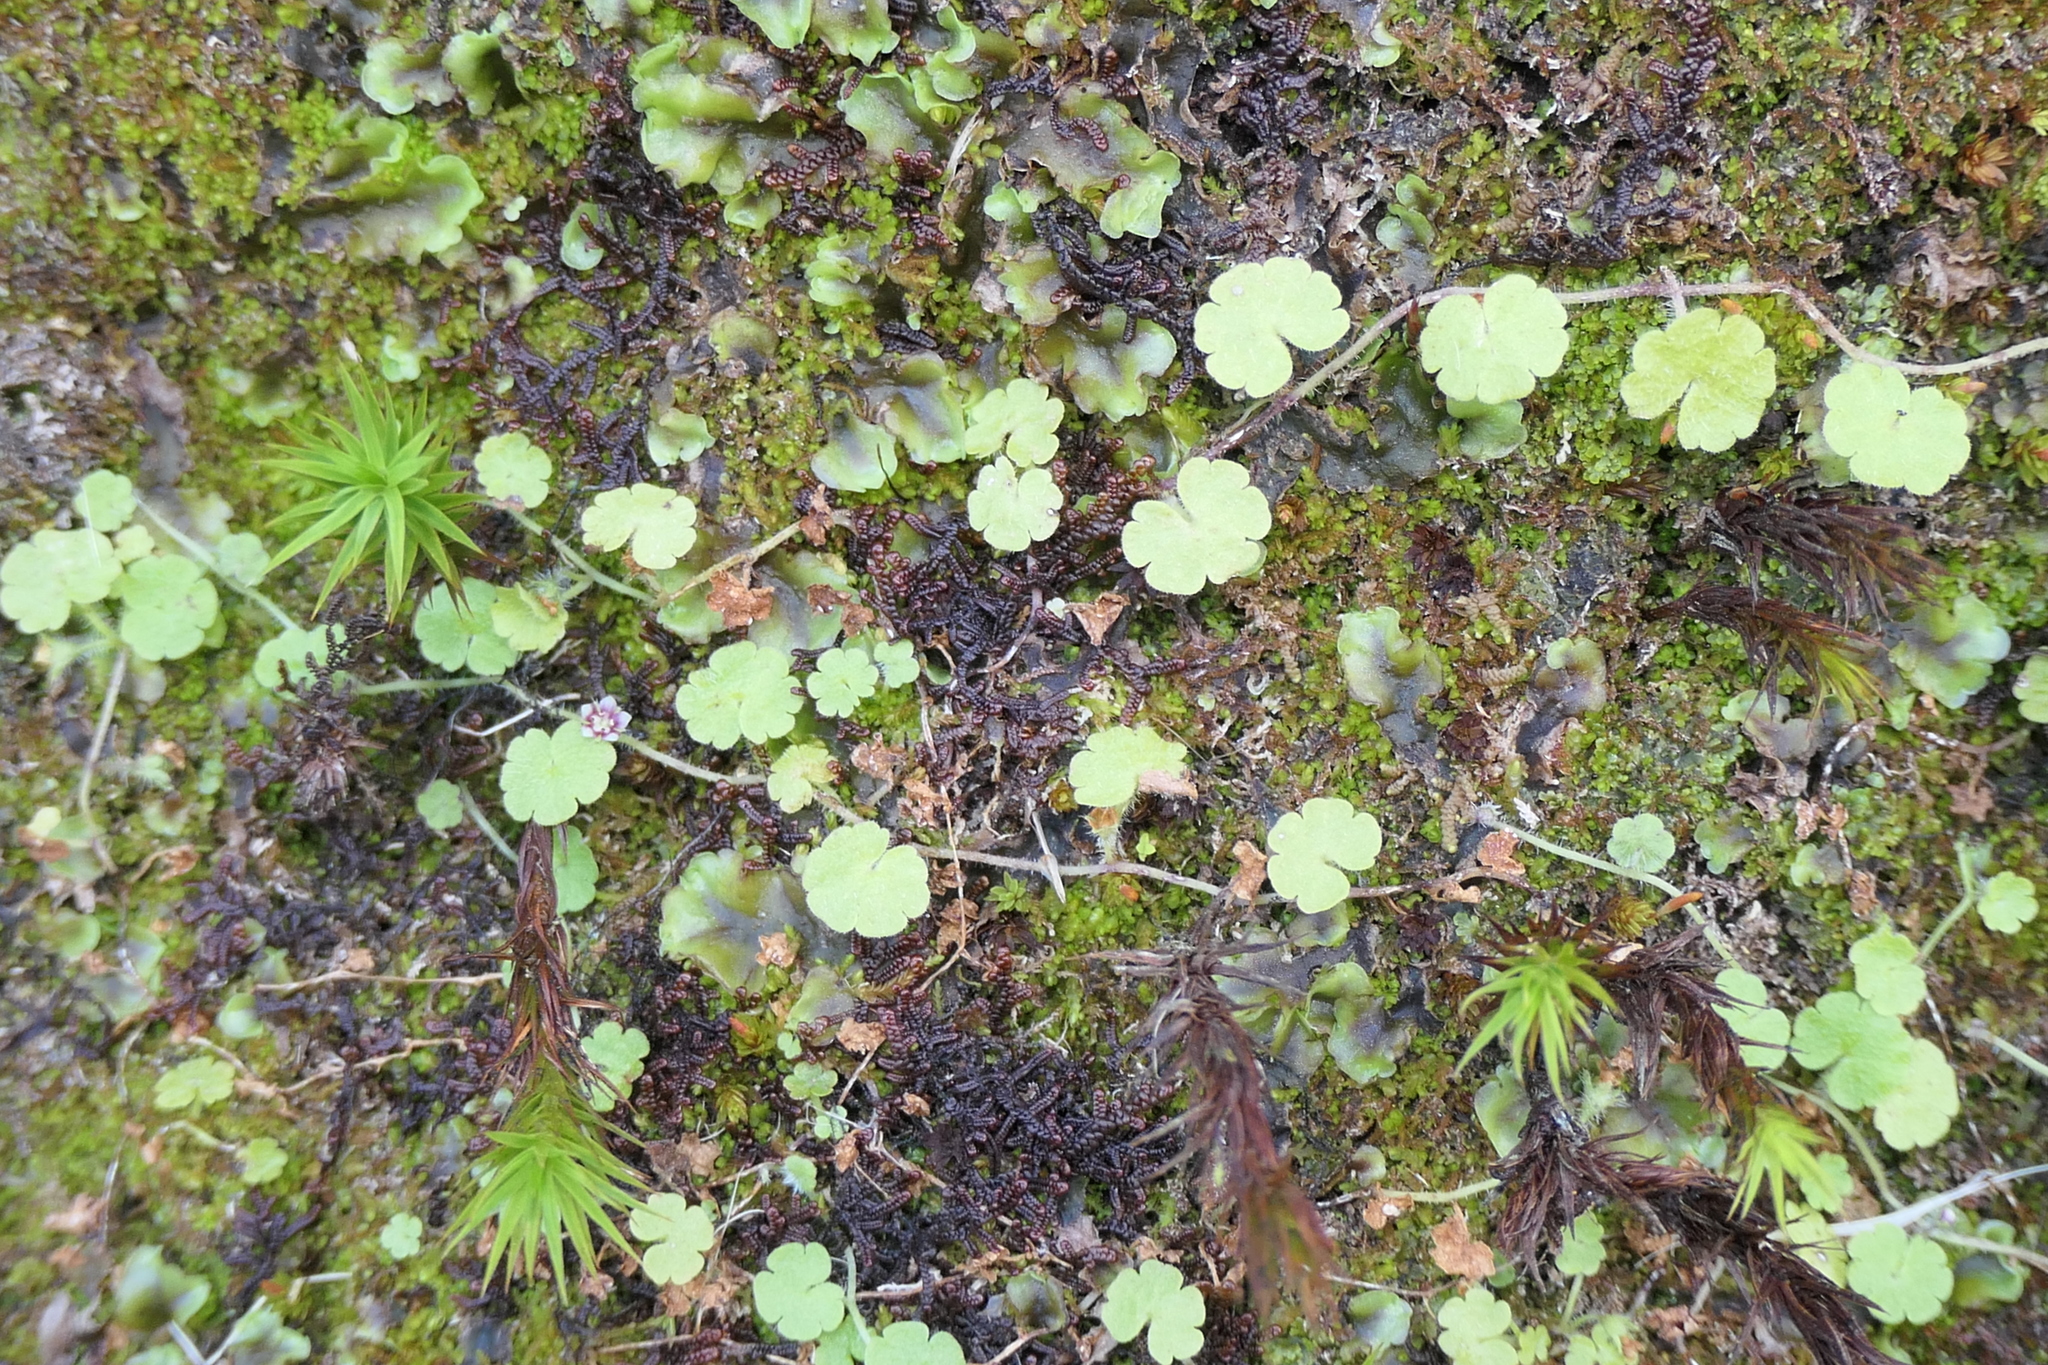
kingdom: Plantae
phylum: Tracheophyta
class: Magnoliopsida
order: Lamiales
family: Plantaginaceae
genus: Sibthorpia
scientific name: Sibthorpia europaea
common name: Cornish moneywort
